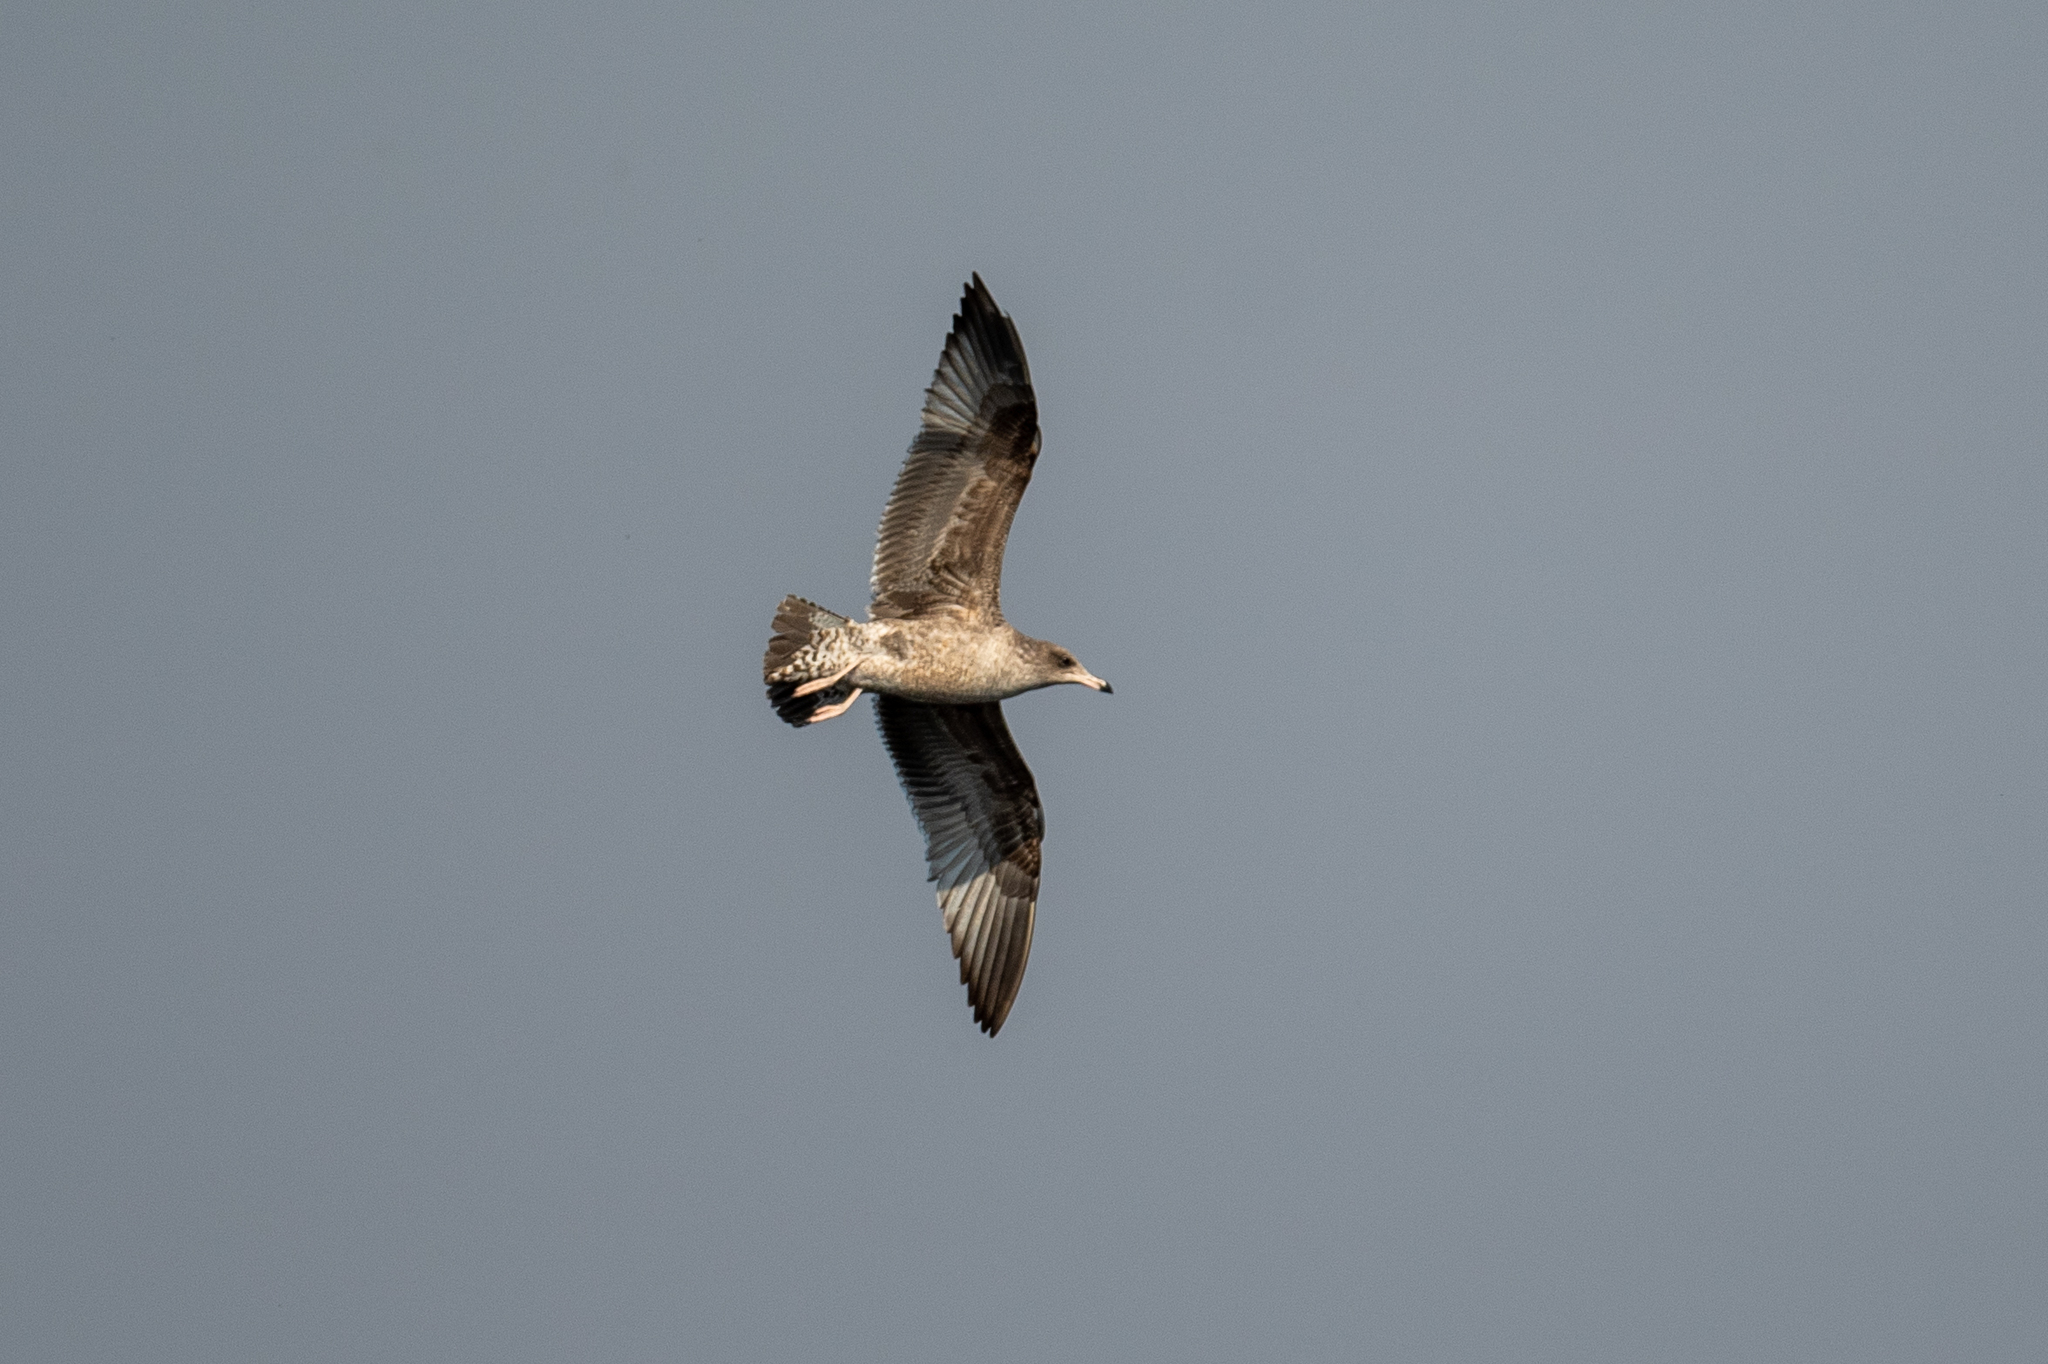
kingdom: Animalia
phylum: Chordata
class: Aves
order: Charadriiformes
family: Laridae
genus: Larus
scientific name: Larus californicus
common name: California gull
